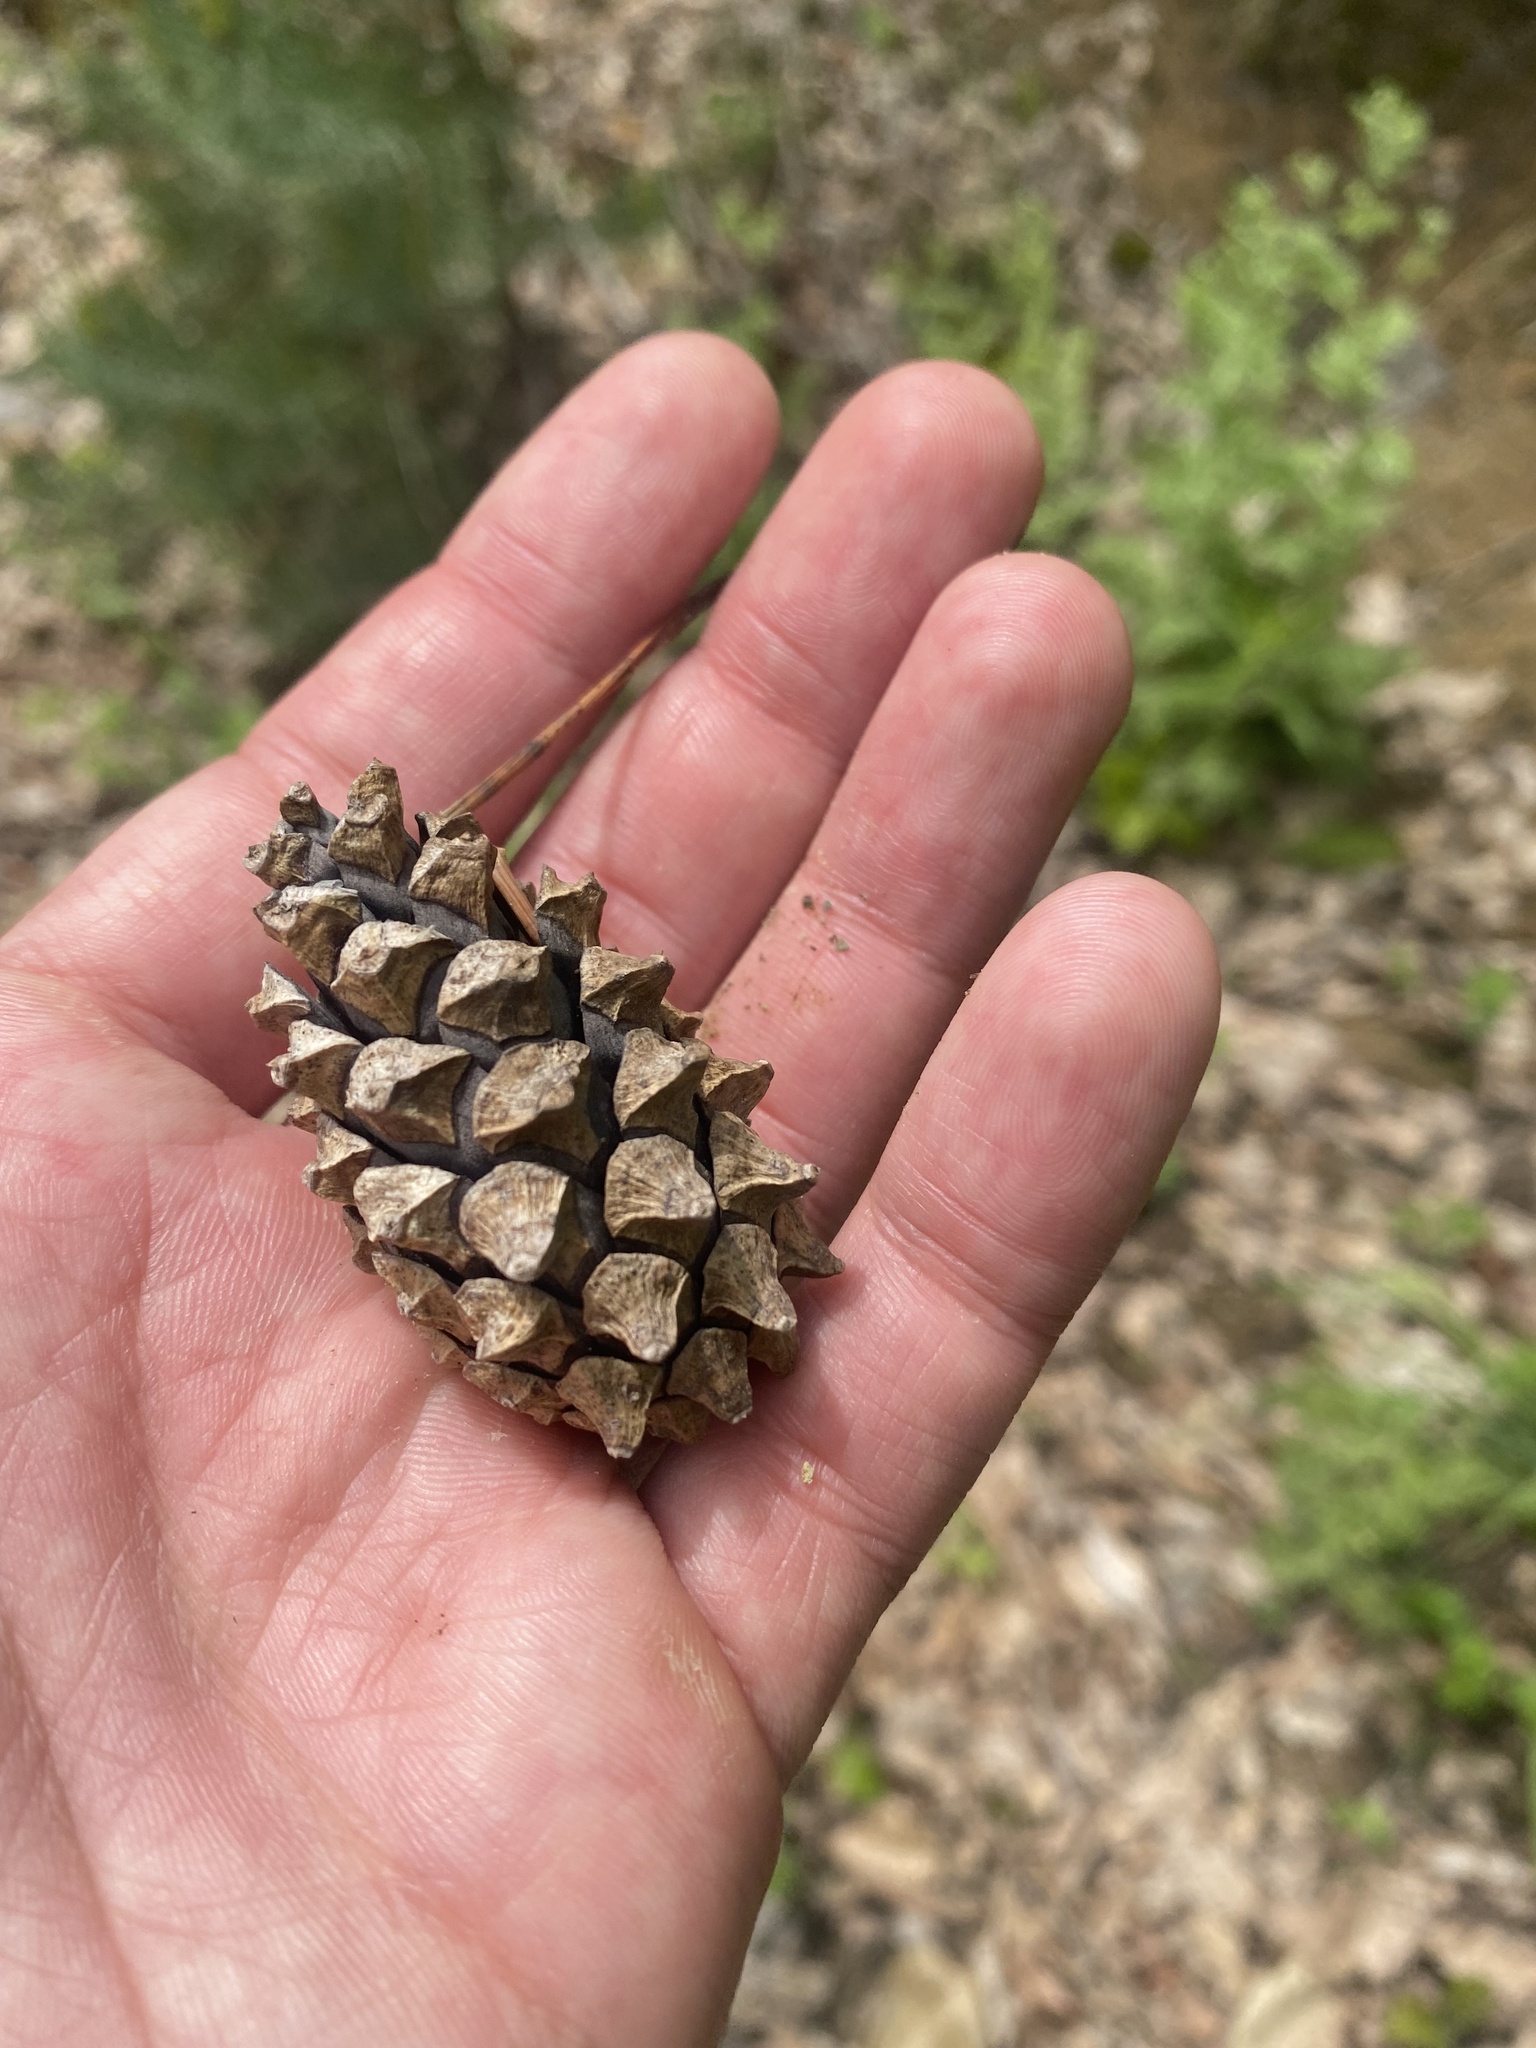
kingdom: Plantae
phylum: Tracheophyta
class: Pinopsida
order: Pinales
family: Pinaceae
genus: Pinus
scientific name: Pinus sylvestris
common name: Scots pine
